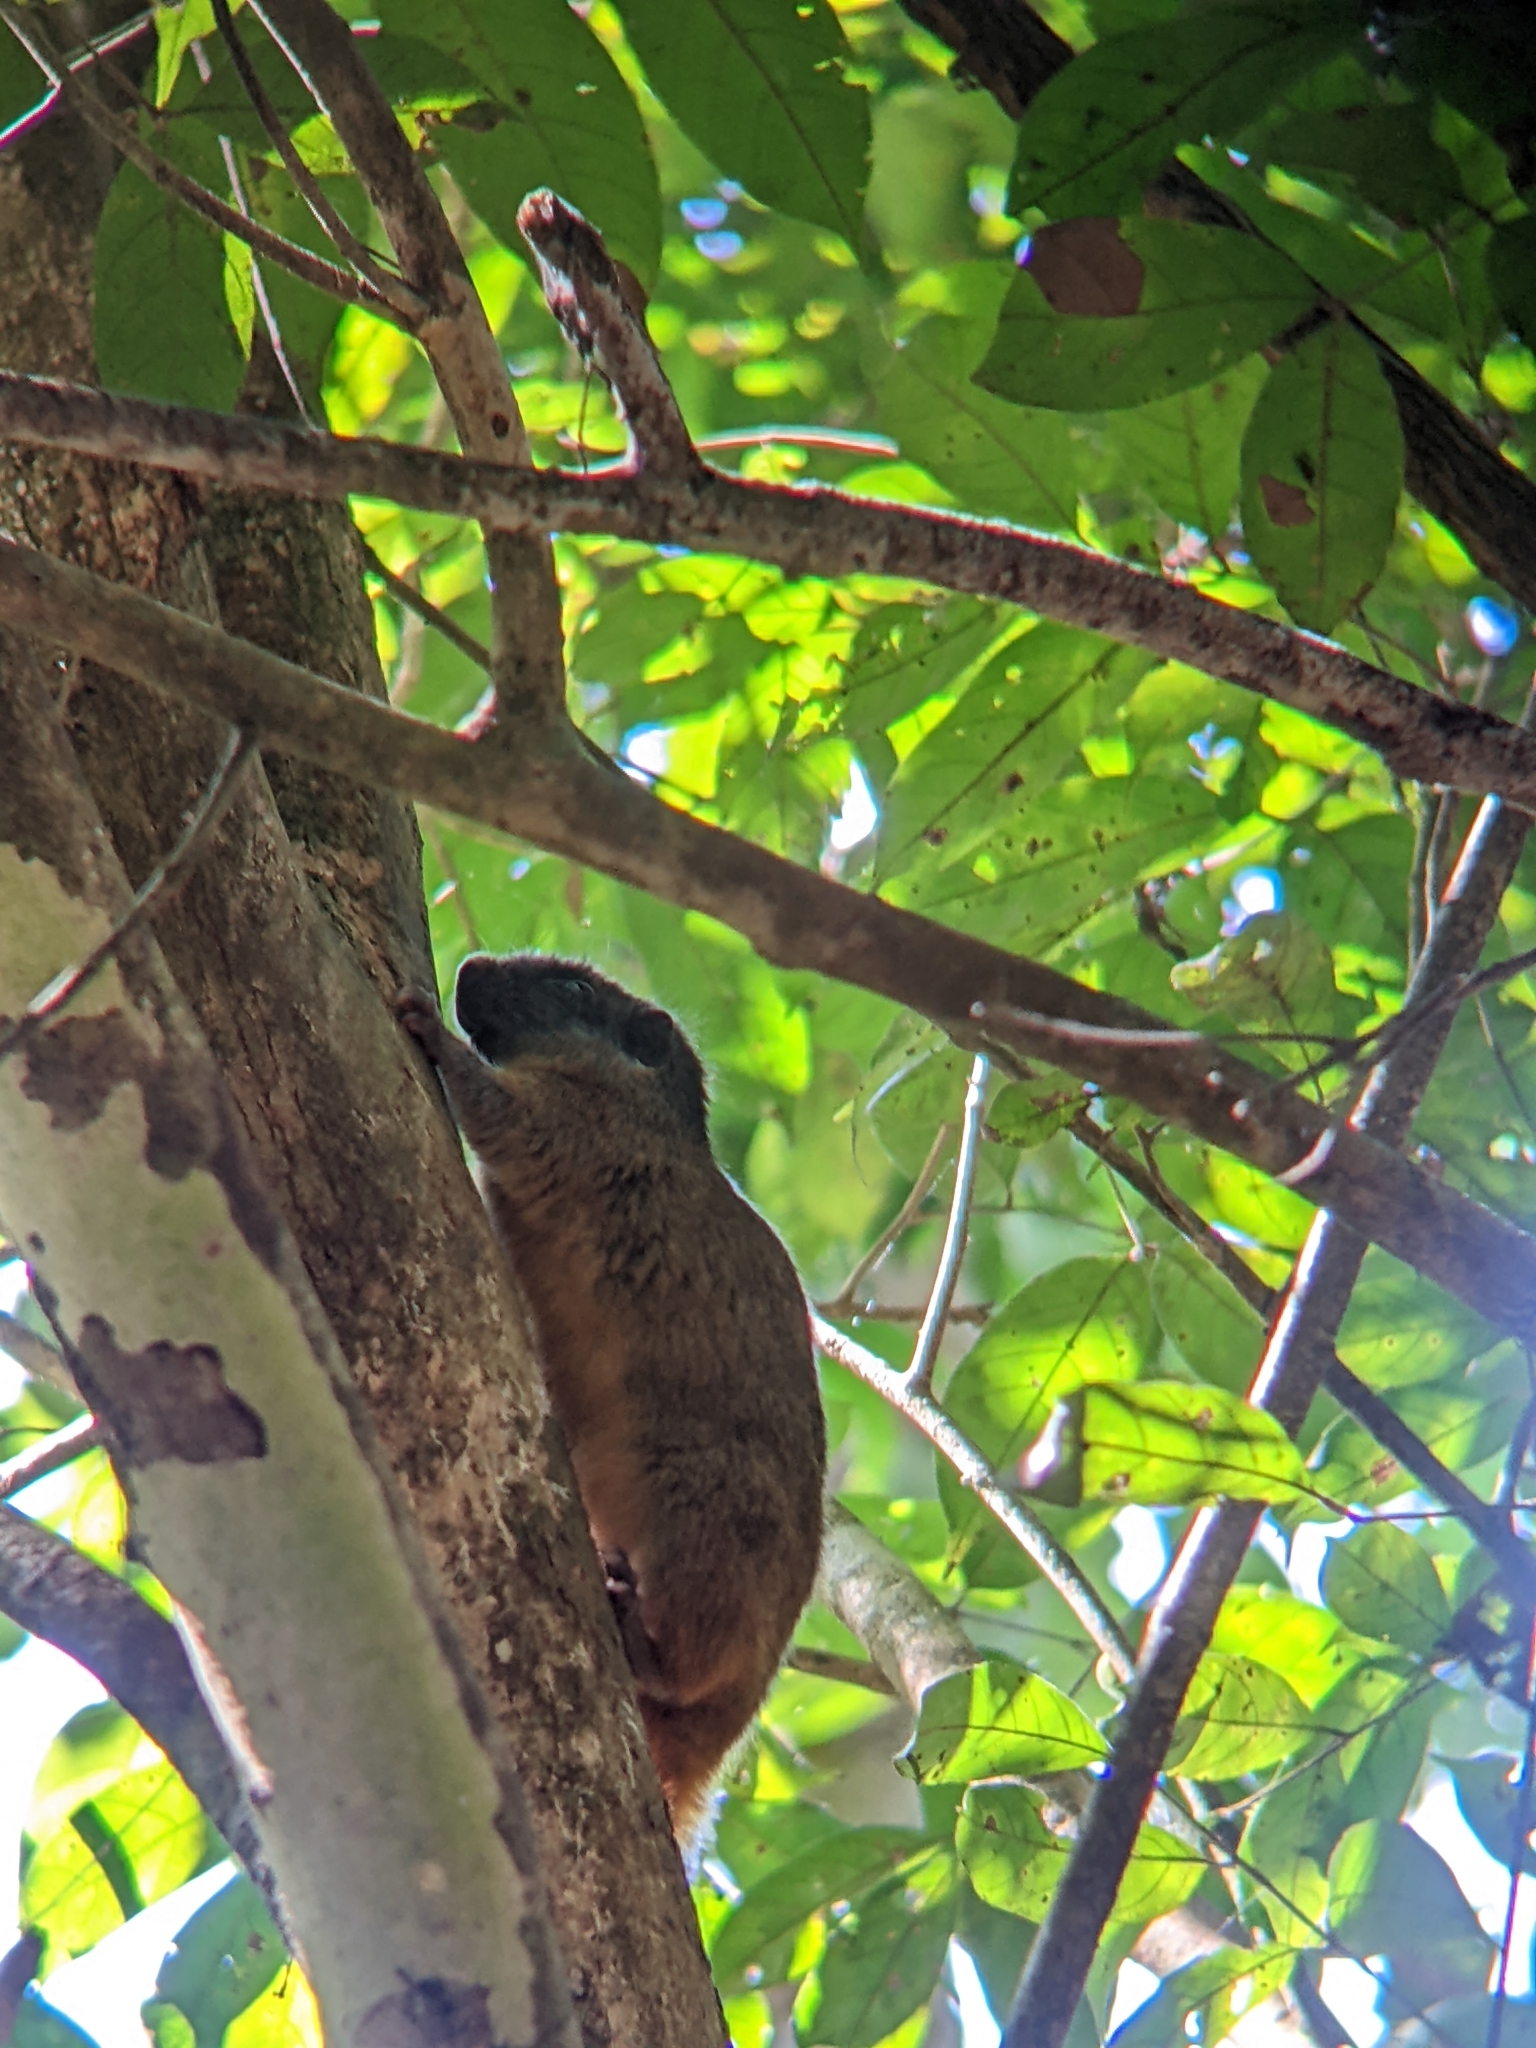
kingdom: Animalia
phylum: Chordata
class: Mammalia
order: Rodentia
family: Echimyidae
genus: Isothrix
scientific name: Isothrix bistriata
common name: Yellow-crowned brush-tailed rat
